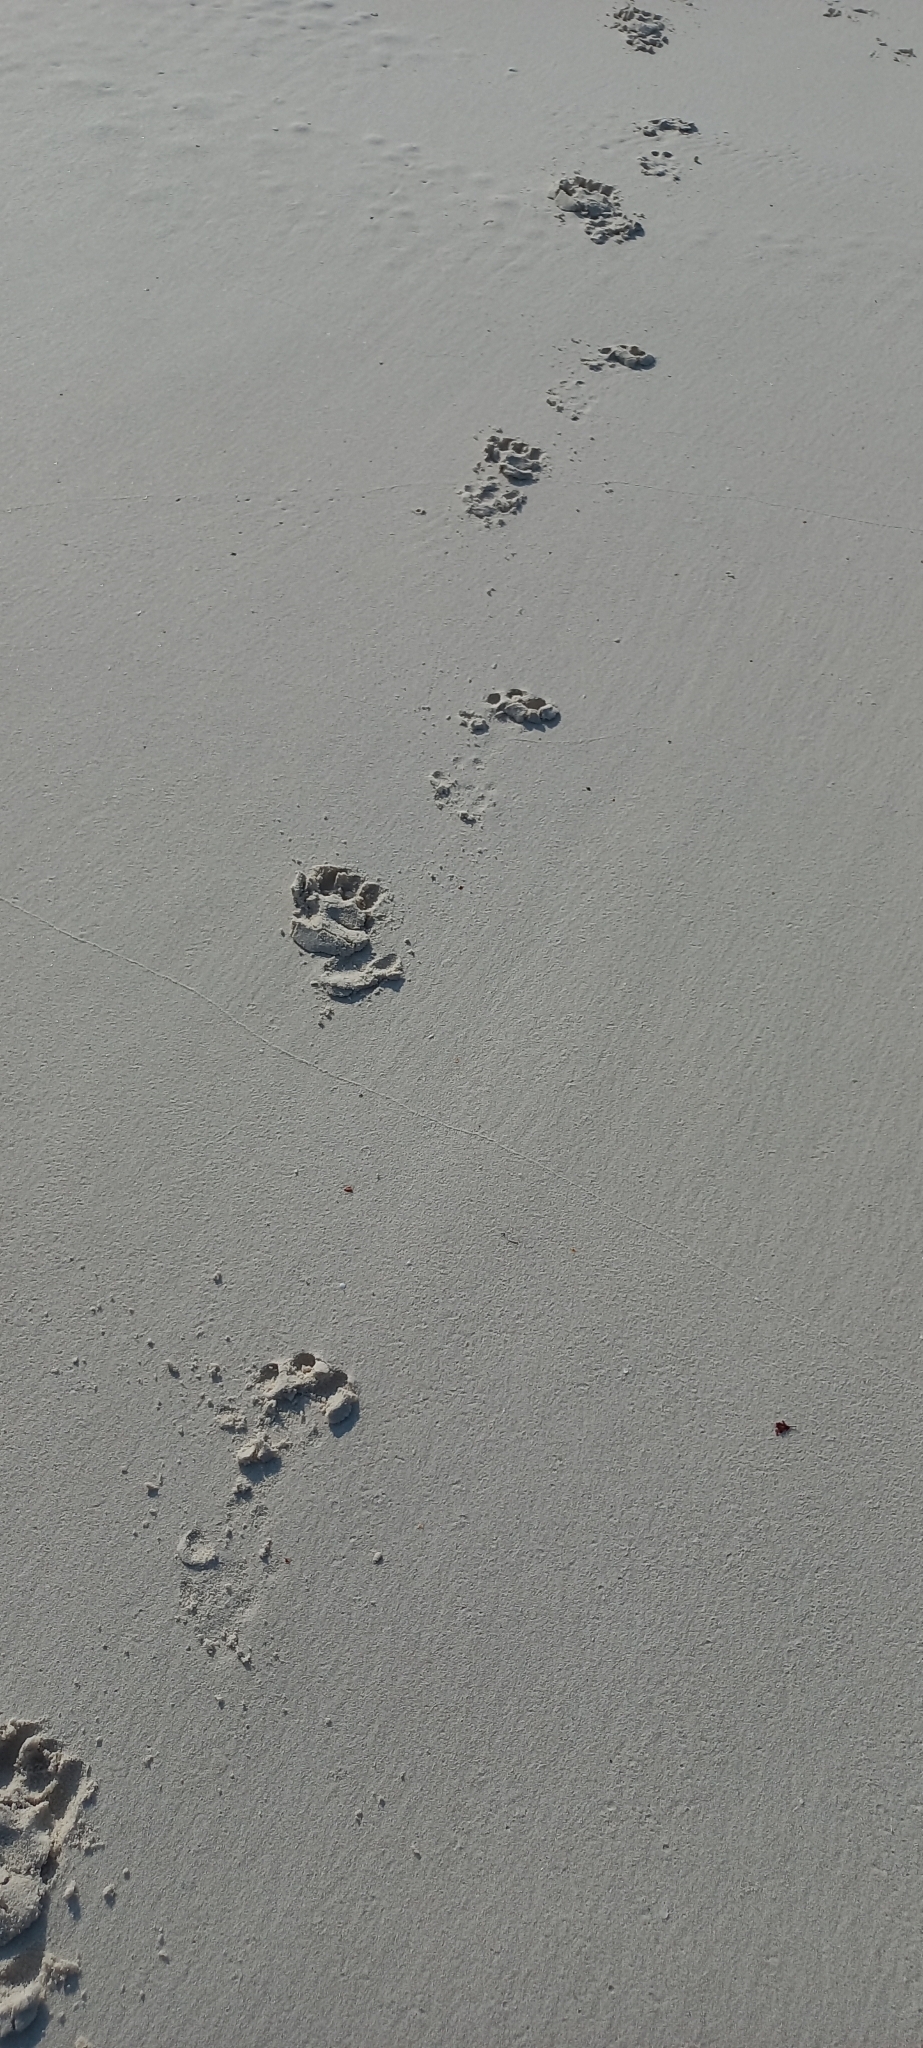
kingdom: Animalia
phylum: Chordata
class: Mammalia
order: Carnivora
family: Mustelidae
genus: Aonyx
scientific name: Aonyx capensis
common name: African clawless otter
